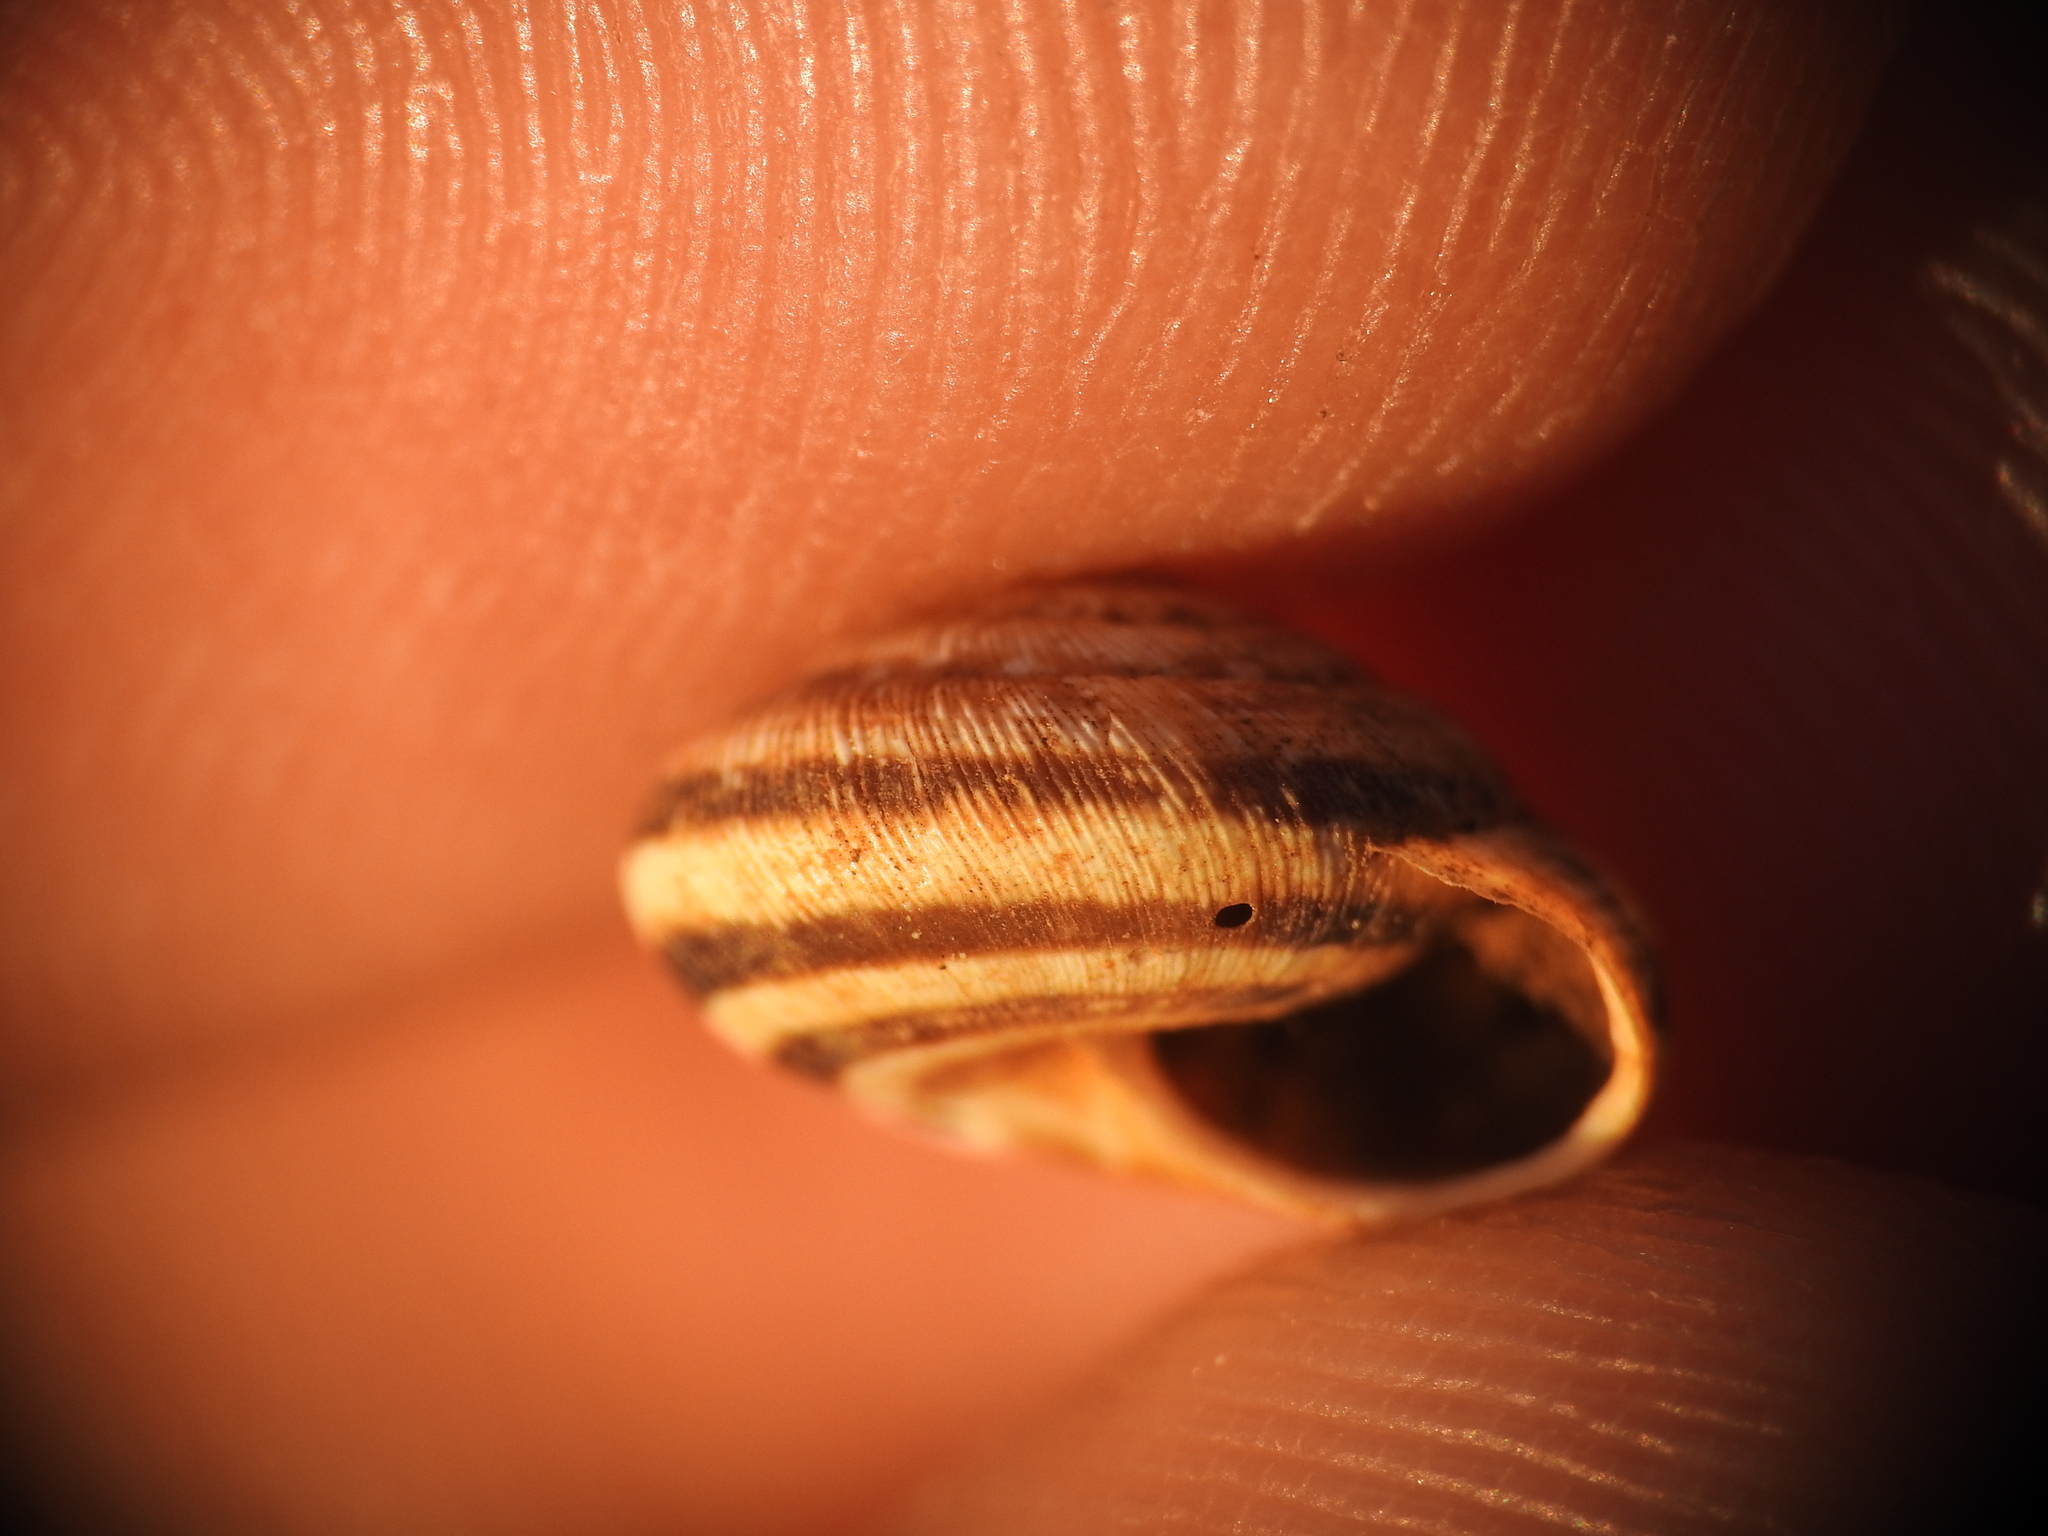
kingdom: Animalia
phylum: Mollusca
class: Gastropoda
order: Stylommatophora
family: Geomitridae
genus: Xerocrassa
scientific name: Xerocrassa siderensis
